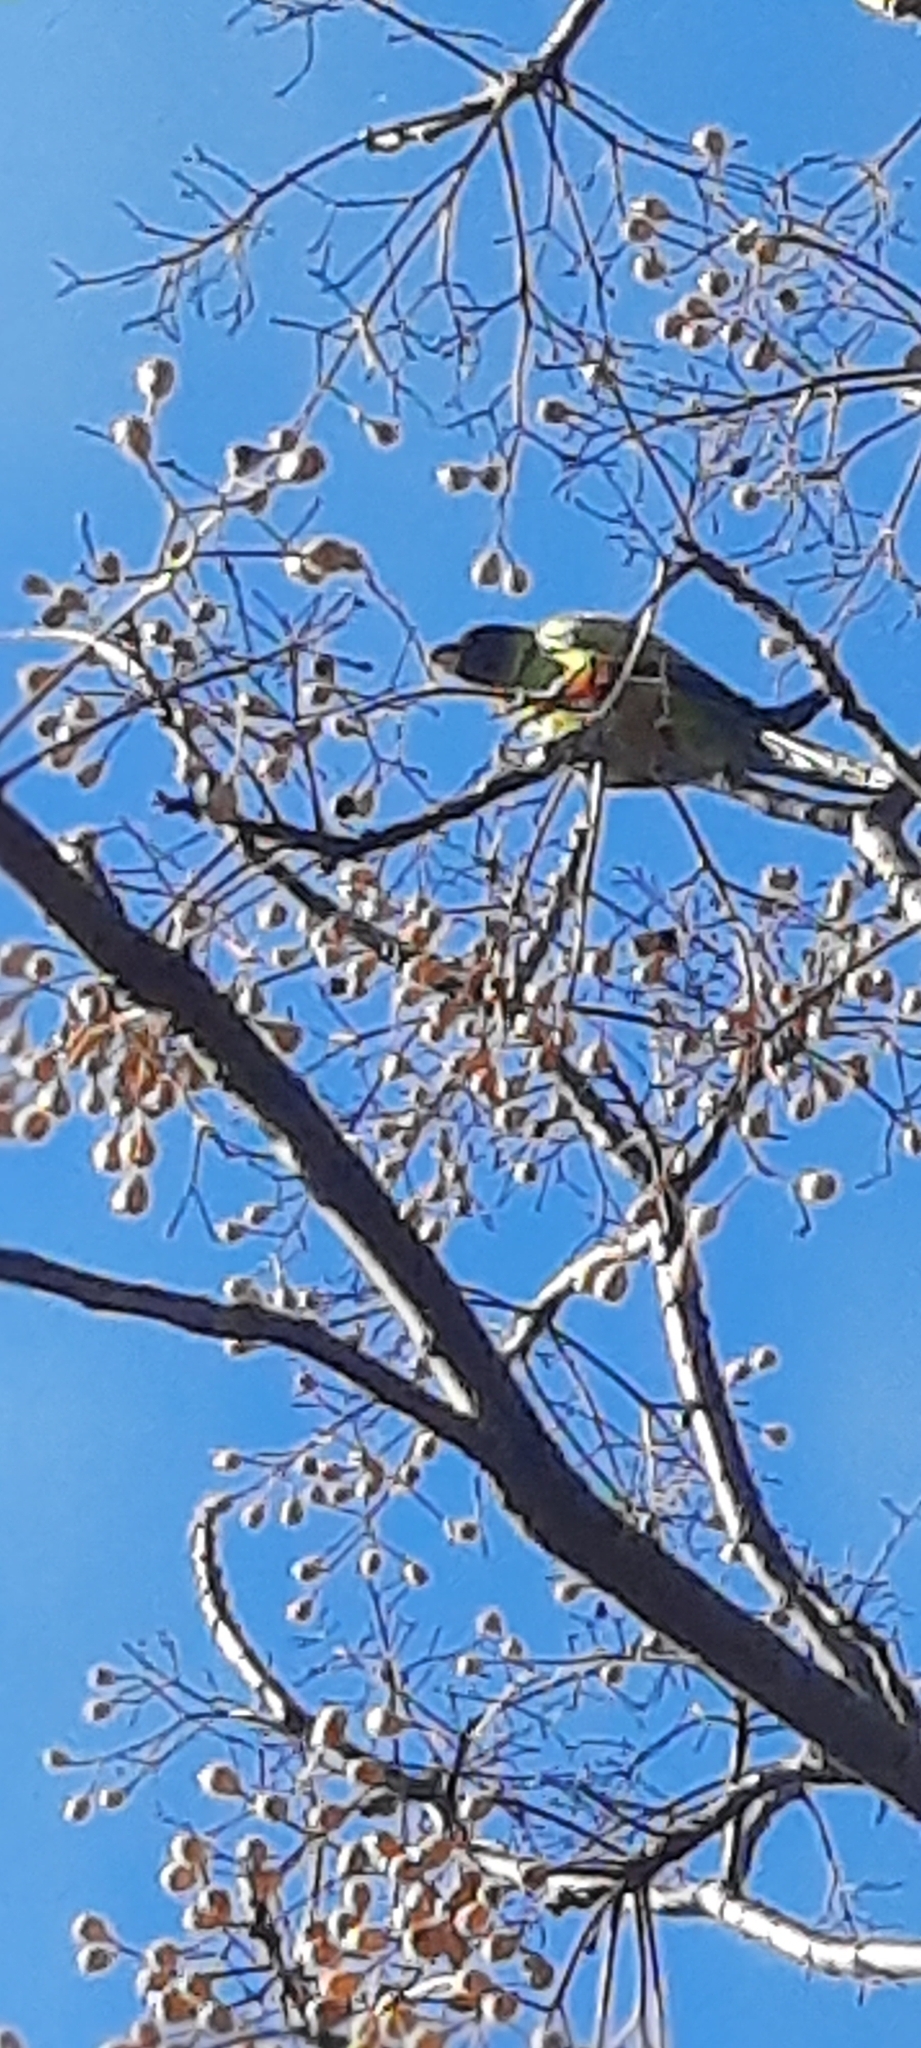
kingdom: Animalia
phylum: Chordata
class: Aves
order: Psittaciformes
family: Psittacidae
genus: Nandayus
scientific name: Nandayus nenday
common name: Nanday parakeet
